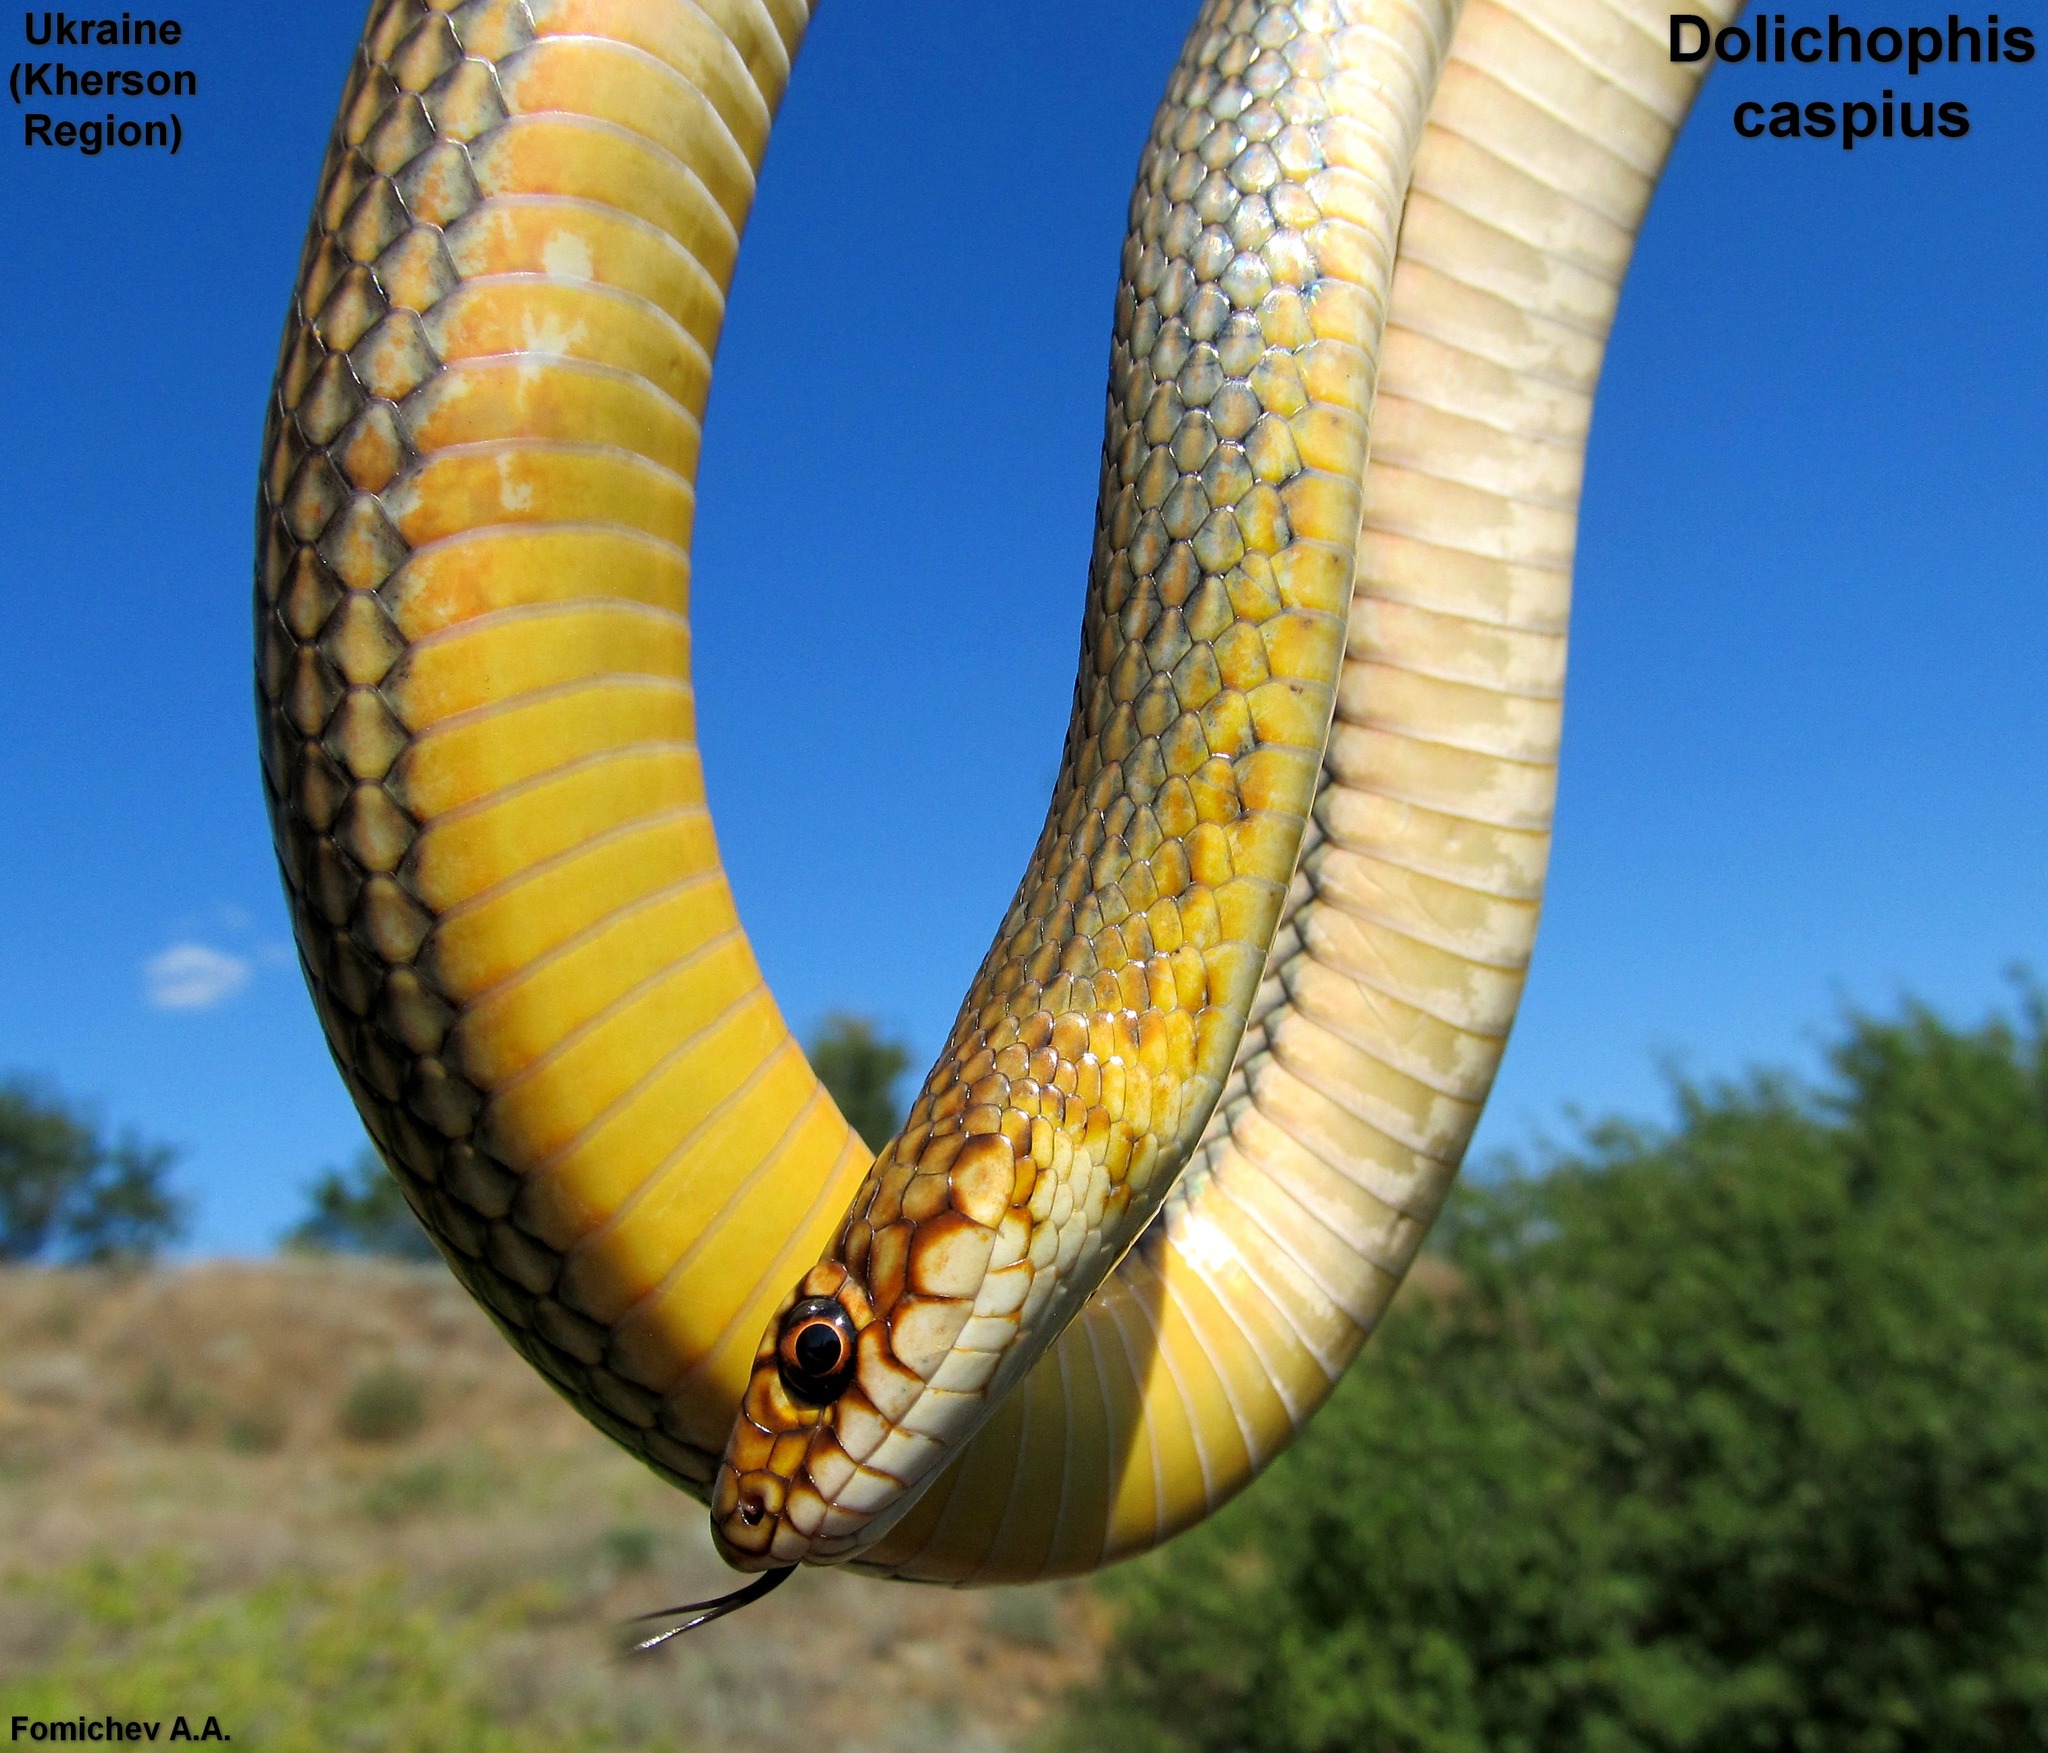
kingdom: Animalia
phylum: Chordata
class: Squamata
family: Colubridae
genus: Dolichophis
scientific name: Dolichophis caspius
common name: Large whip snake
